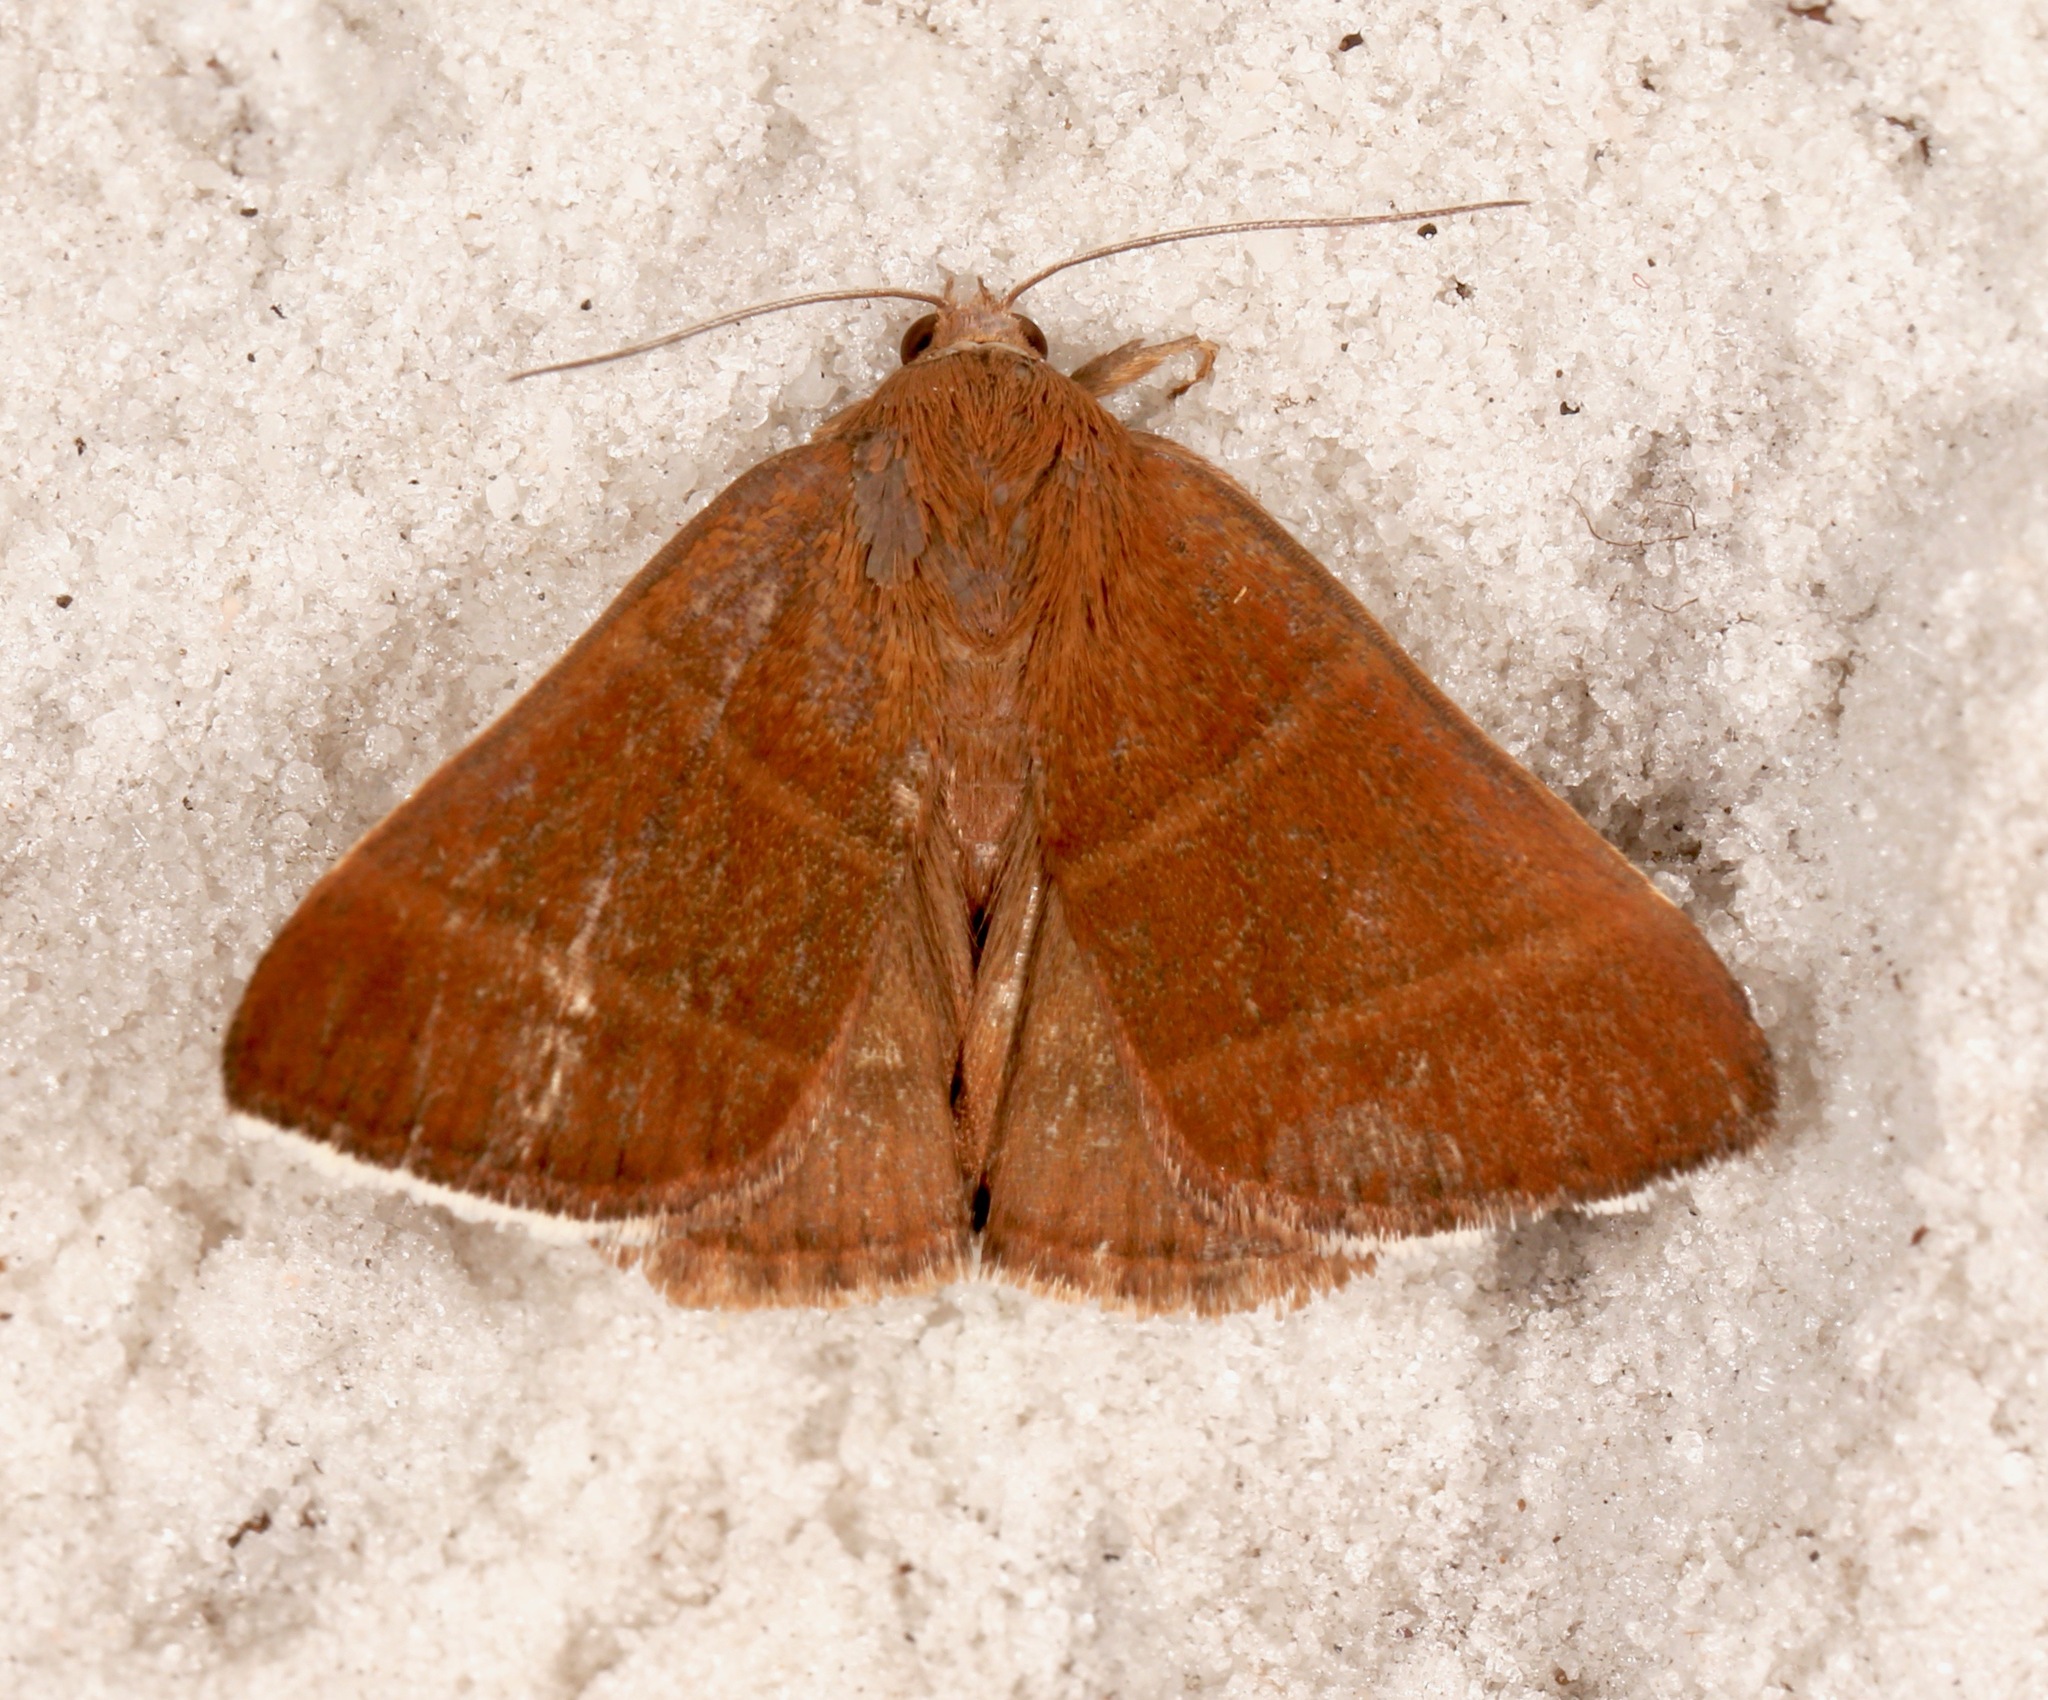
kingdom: Animalia
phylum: Arthropoda
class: Insecta
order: Lepidoptera
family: Erebidae
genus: Argyrostrotis
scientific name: Argyrostrotis quadrifilaris
